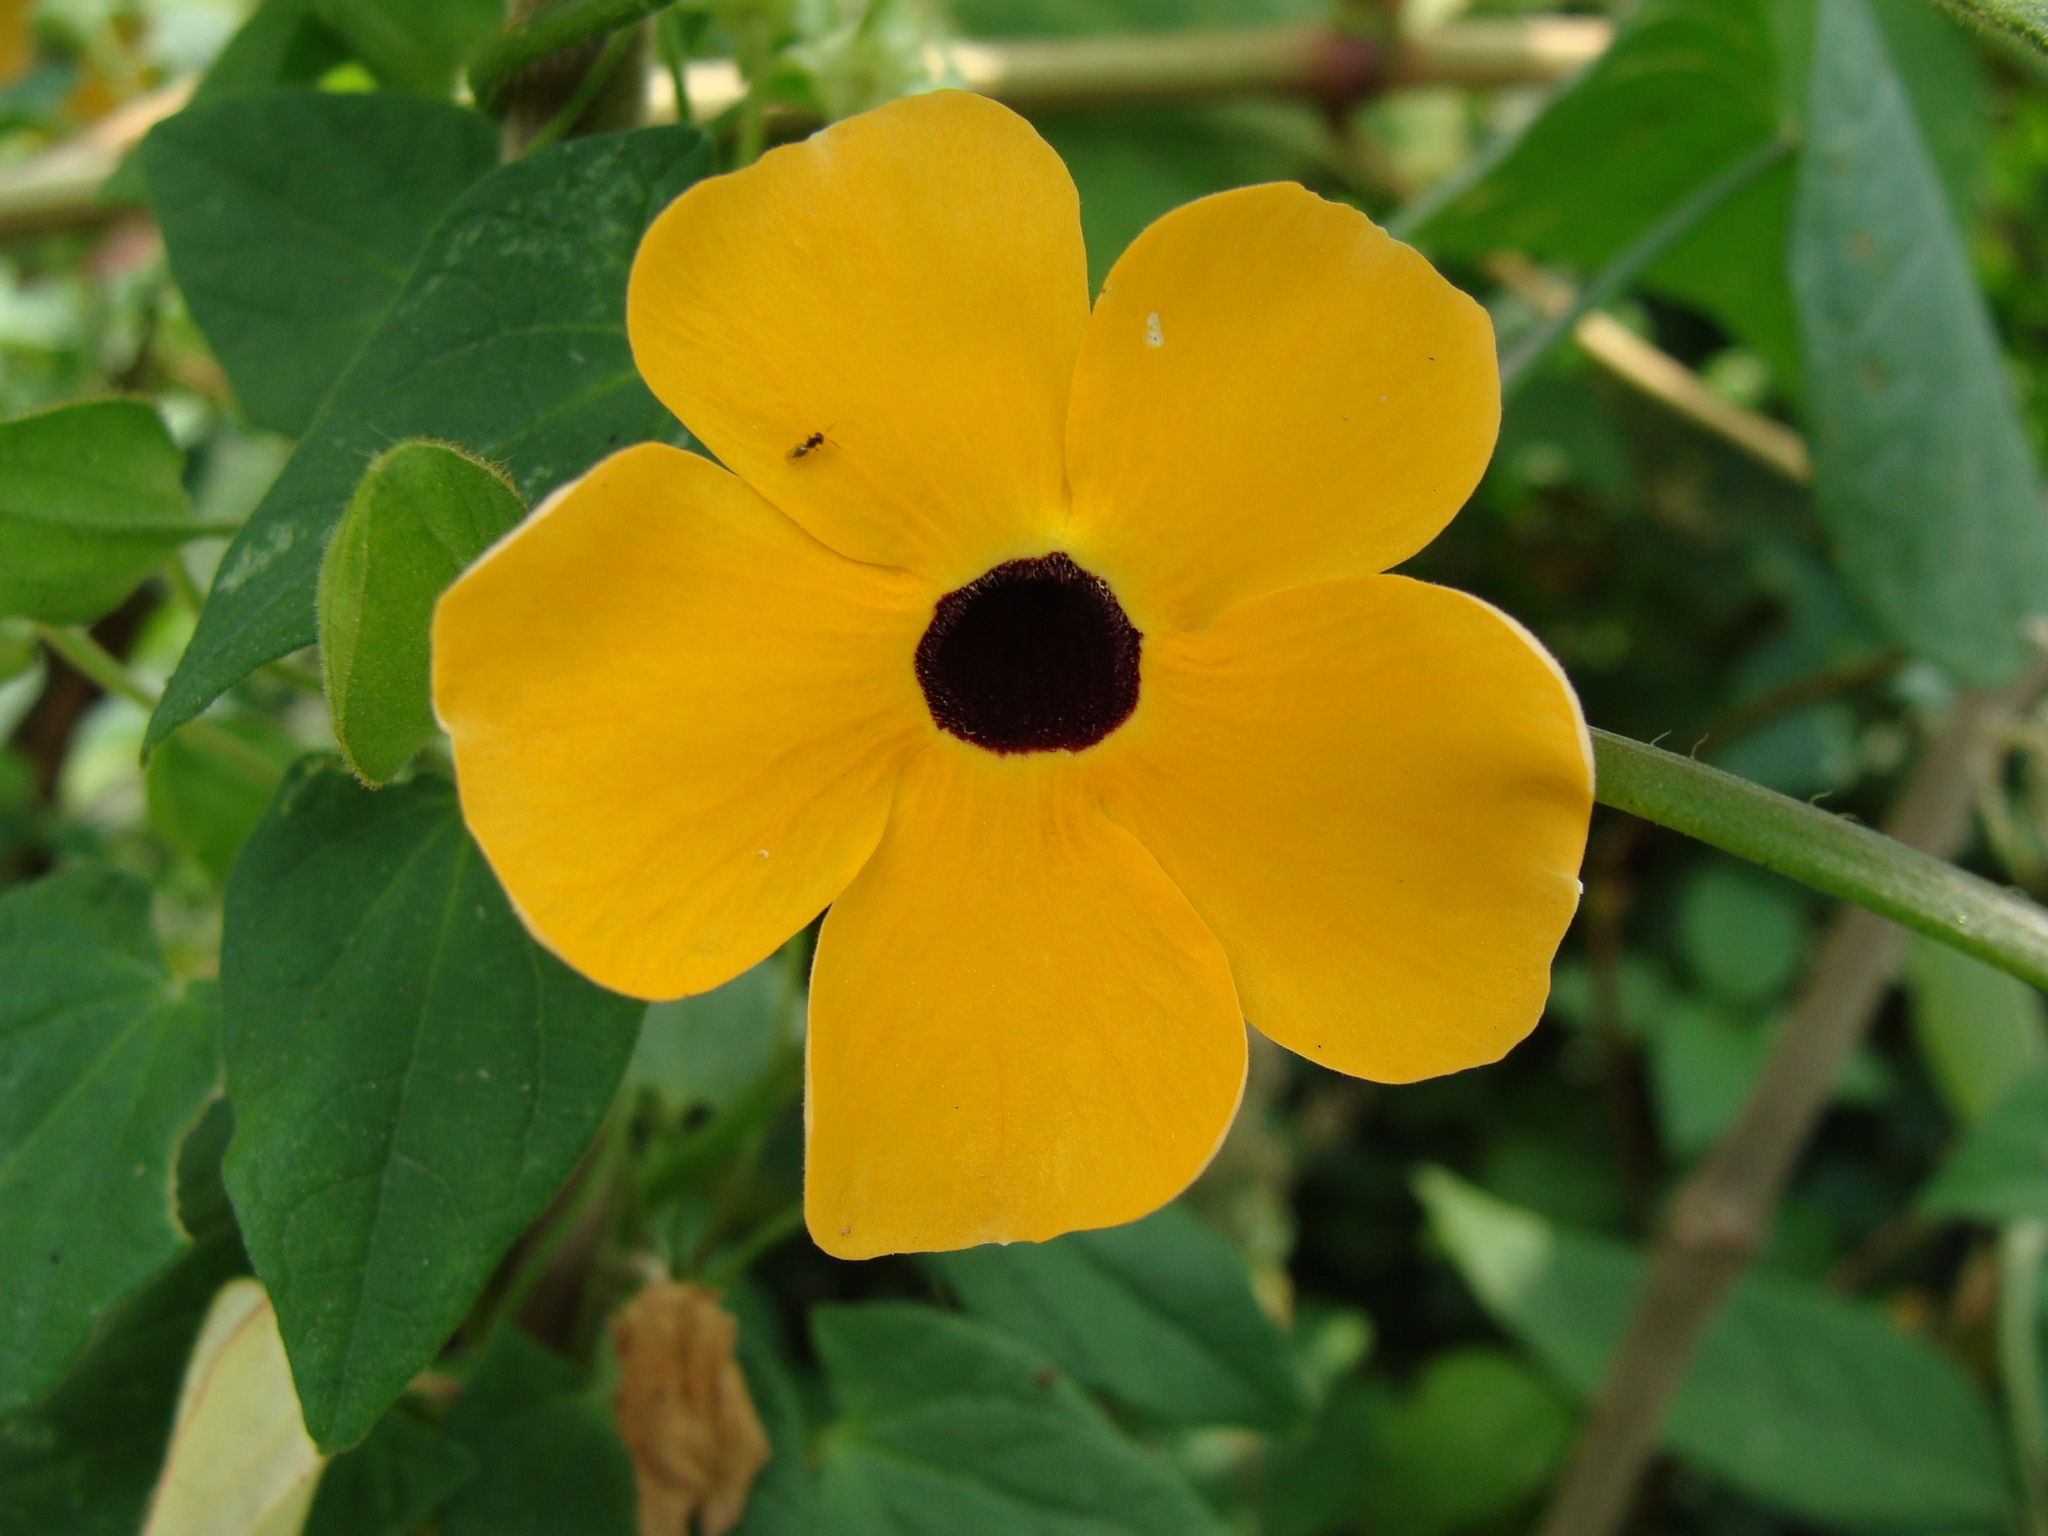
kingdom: Plantae
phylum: Tracheophyta
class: Magnoliopsida
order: Lamiales
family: Acanthaceae
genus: Thunbergia
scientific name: Thunbergia alata
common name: Blackeyed susan vine
